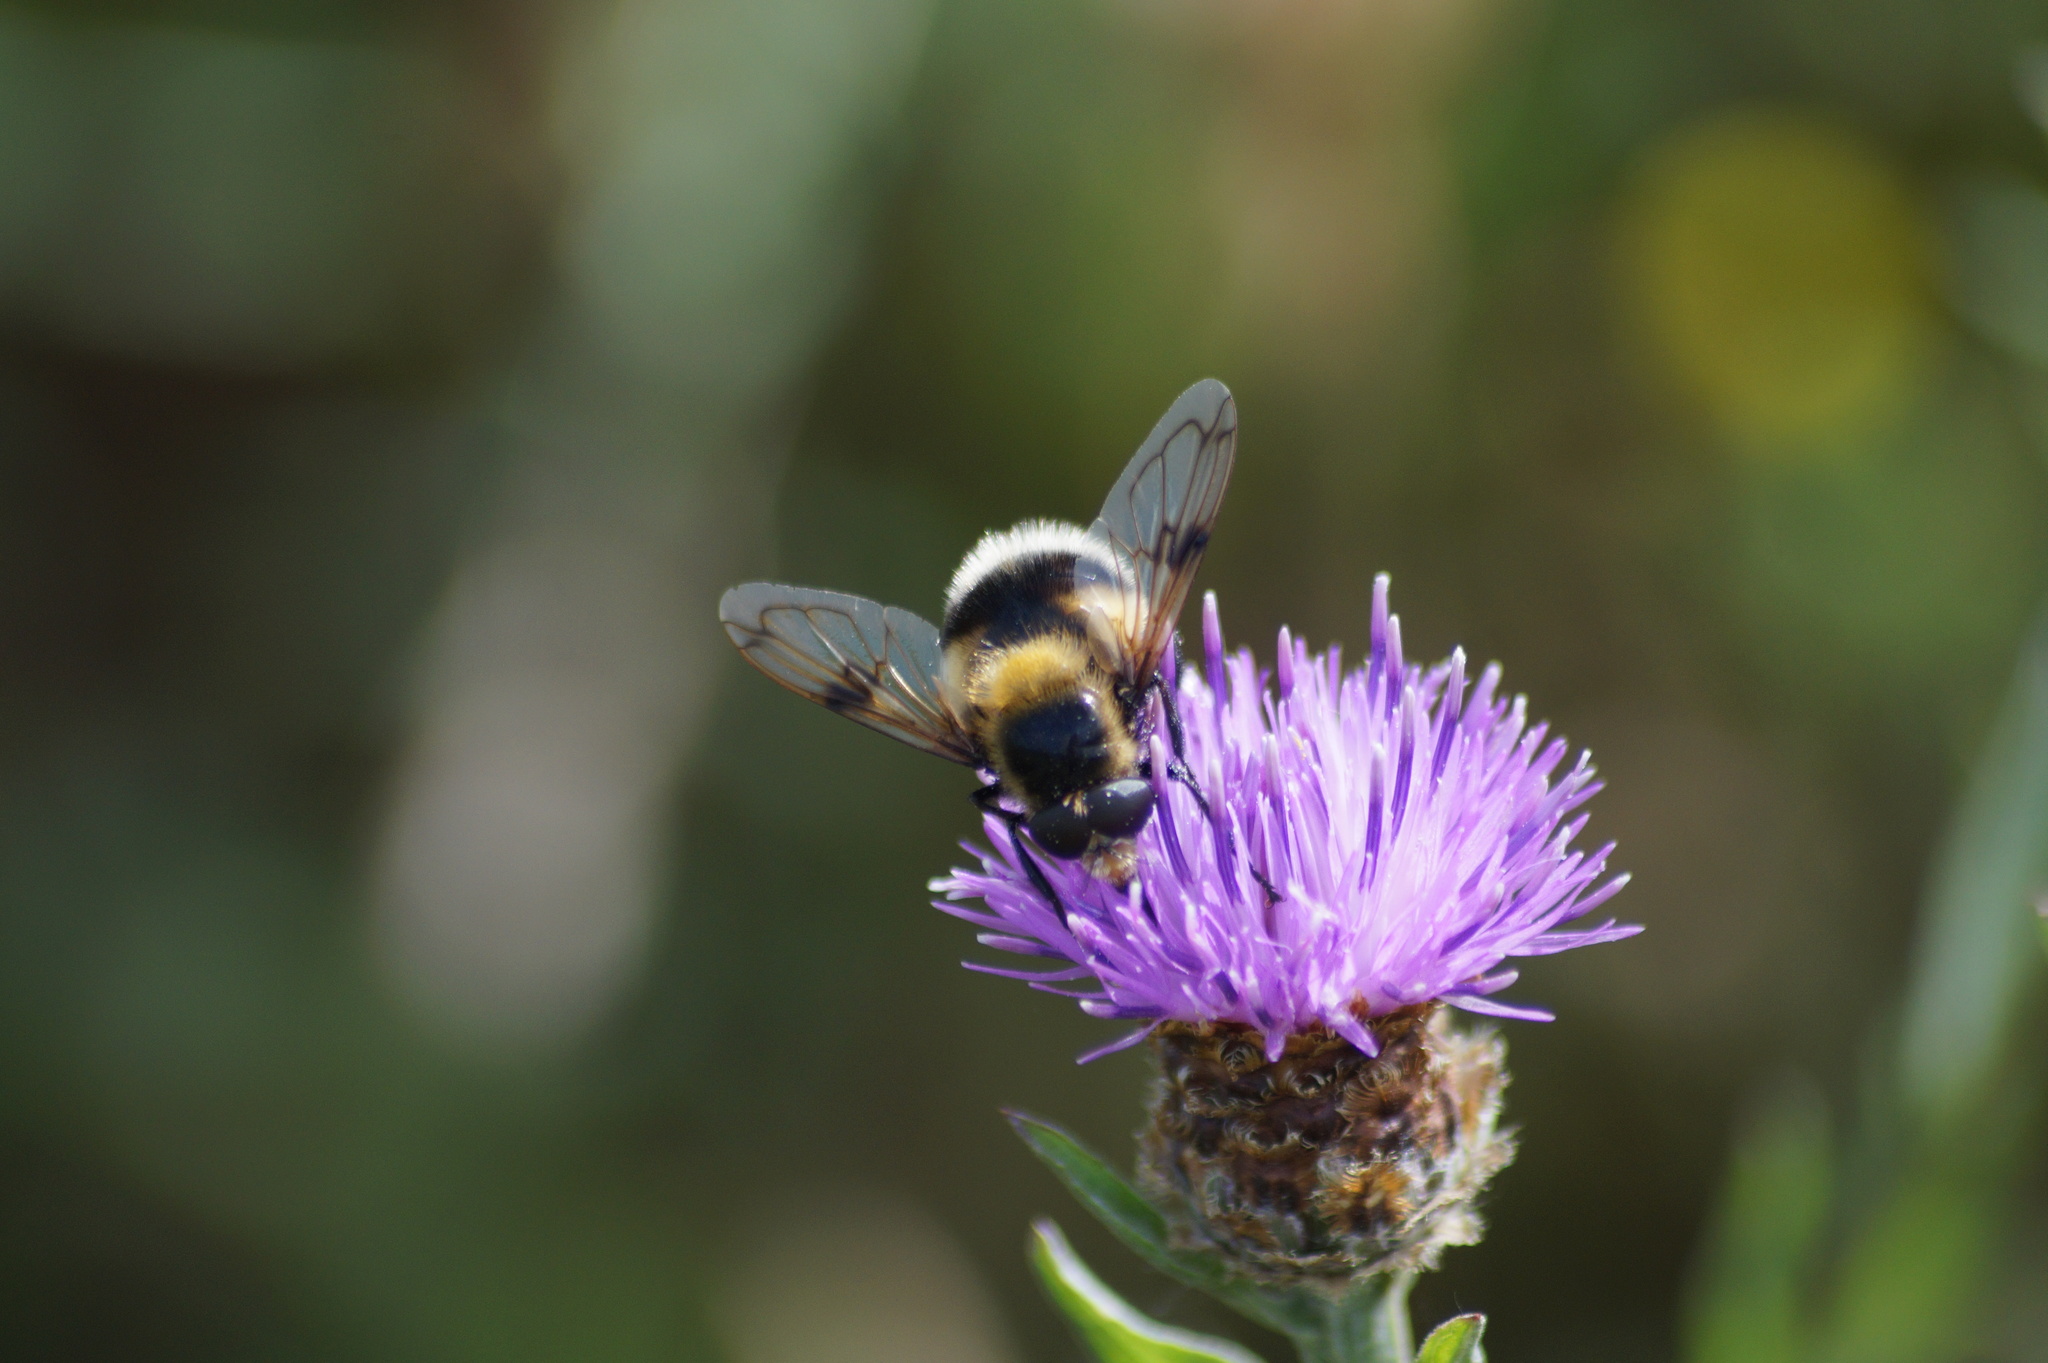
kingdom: Animalia
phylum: Arthropoda
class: Insecta
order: Diptera
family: Syrphidae
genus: Volucella
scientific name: Volucella bombylans
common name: Bumble bee hover fly
